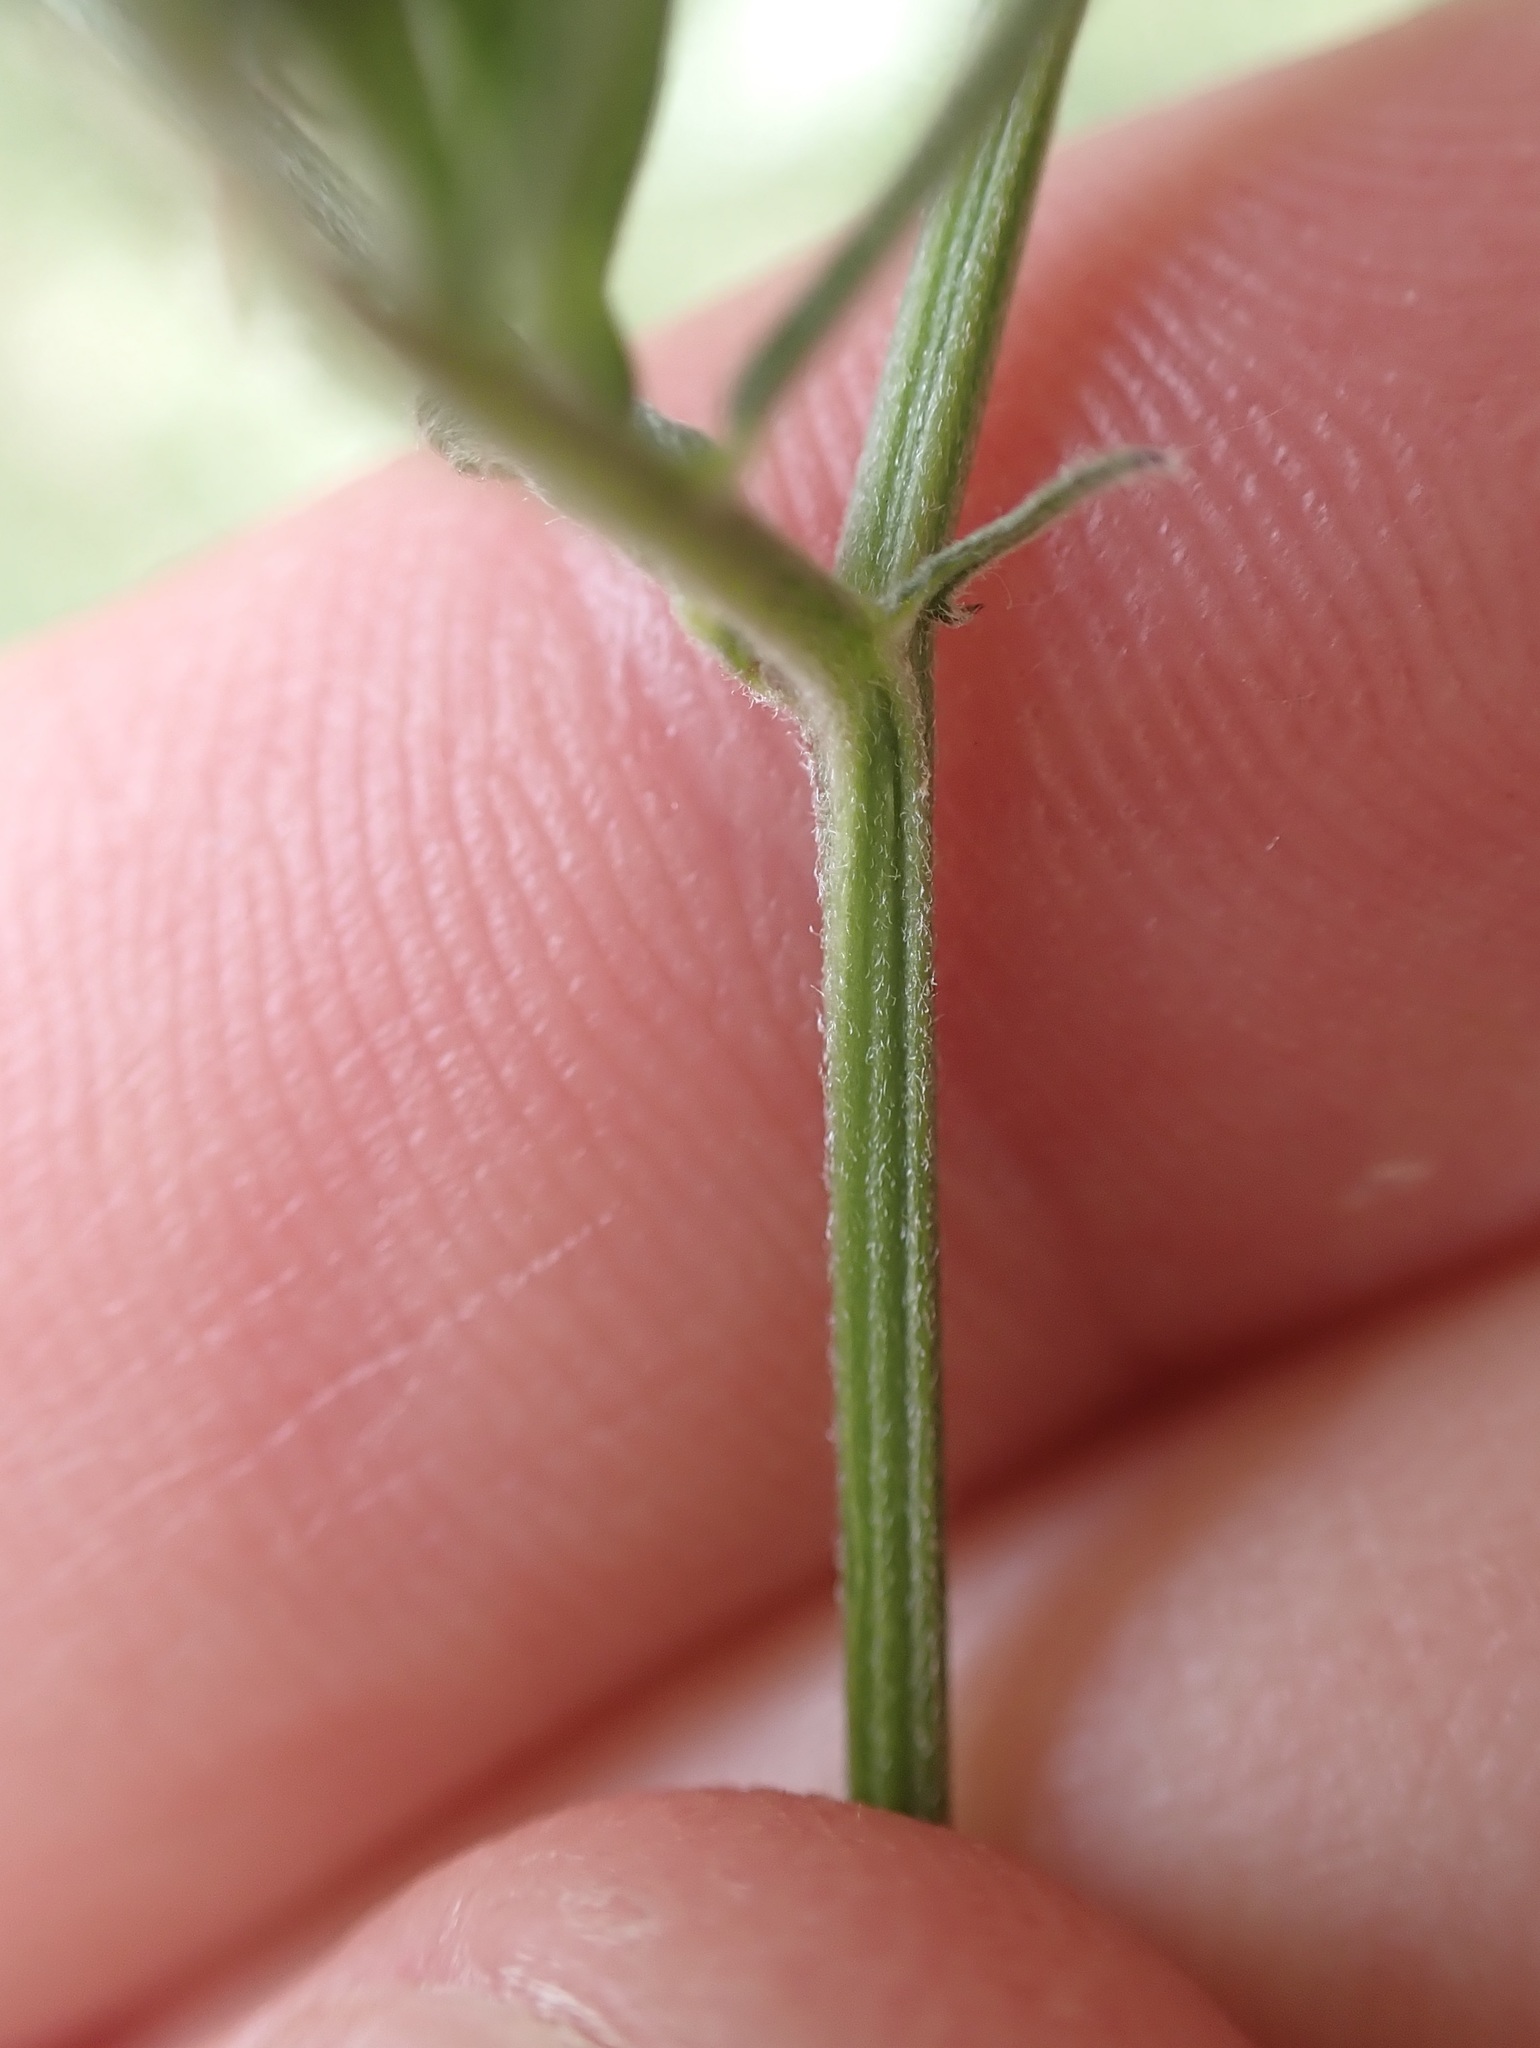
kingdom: Plantae
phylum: Tracheophyta
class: Magnoliopsida
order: Fabales
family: Fabaceae
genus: Vicia
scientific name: Vicia cracca
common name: Bird vetch
